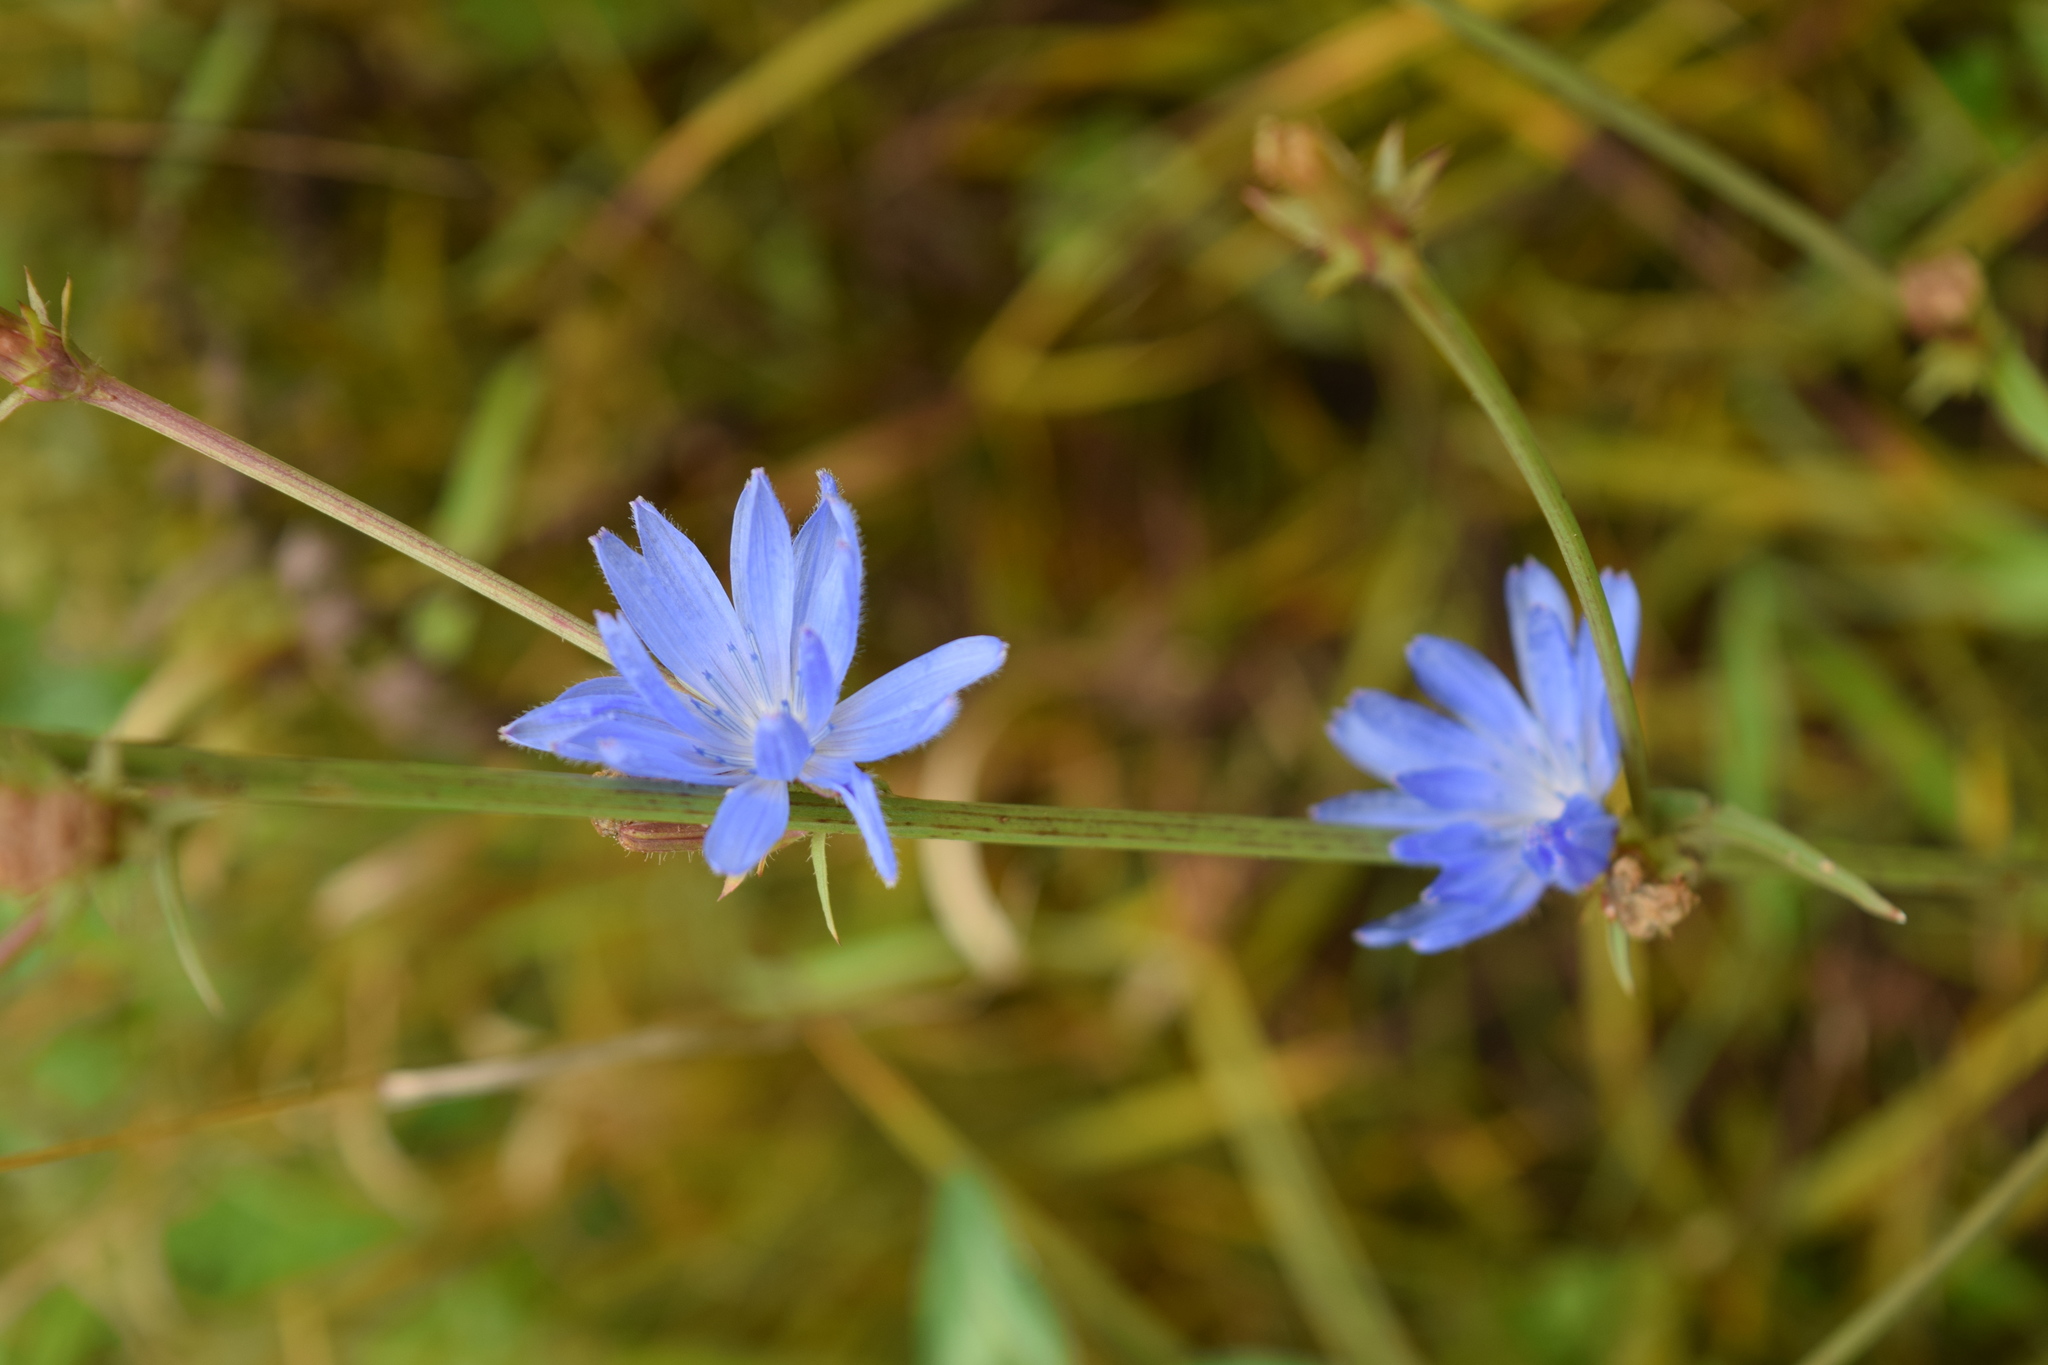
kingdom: Plantae
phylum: Tracheophyta
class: Magnoliopsida
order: Asterales
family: Asteraceae
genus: Cichorium
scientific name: Cichorium intybus
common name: Chicory
